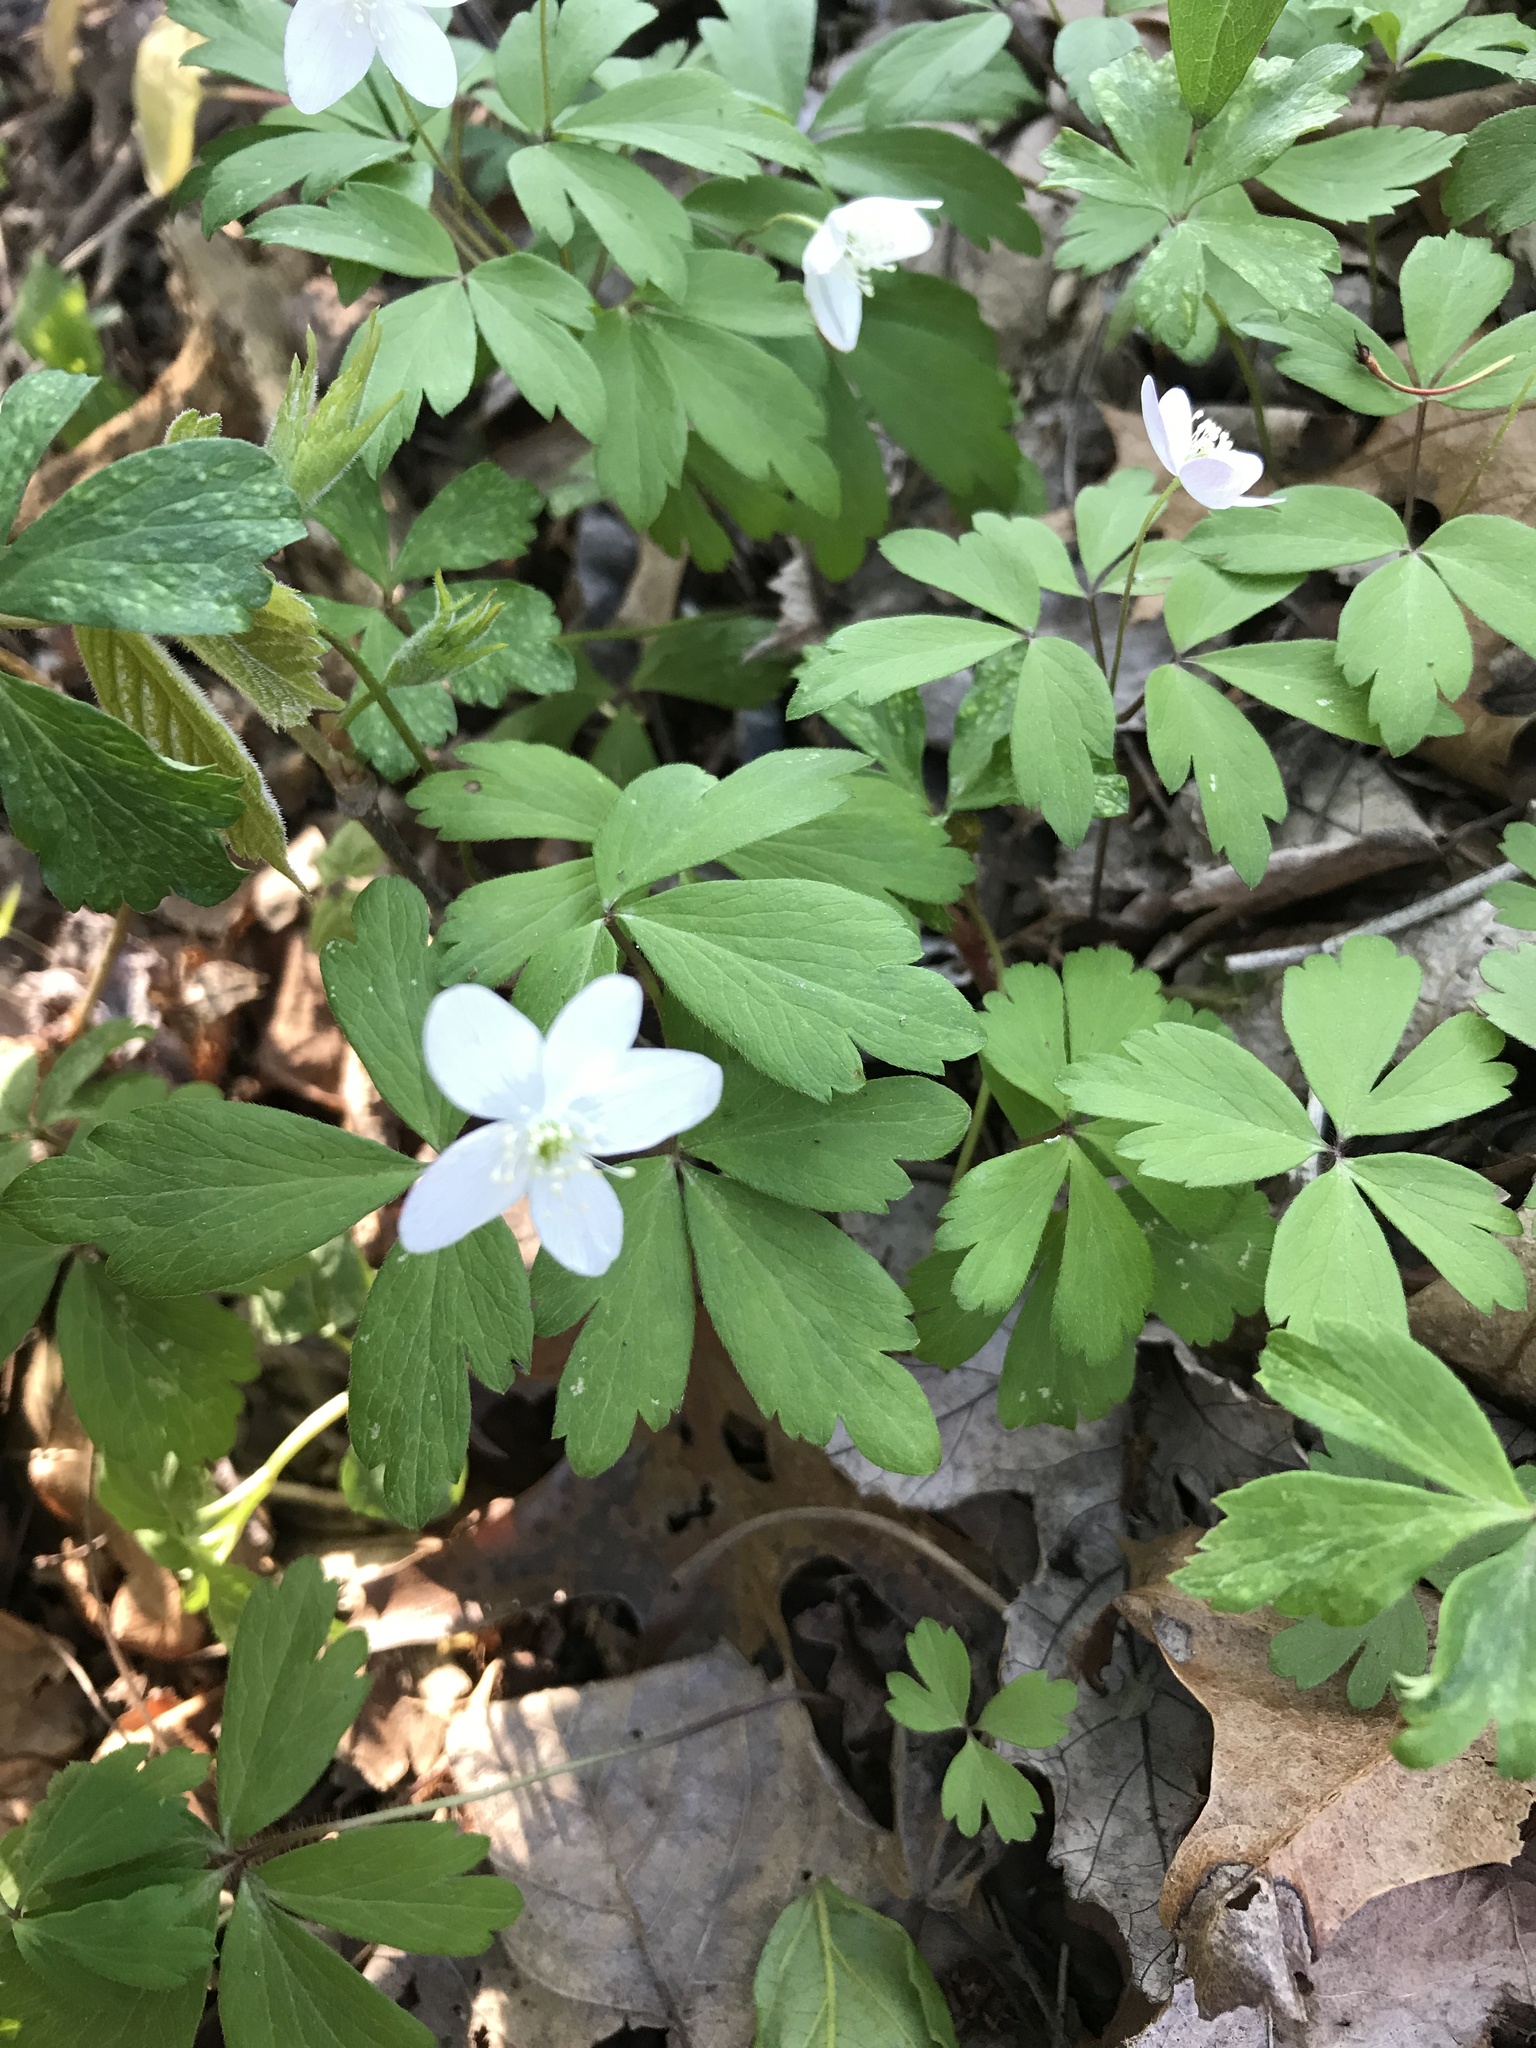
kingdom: Plantae
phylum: Tracheophyta
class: Magnoliopsida
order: Ranunculales
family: Ranunculaceae
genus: Anemone
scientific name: Anemone quinquefolia
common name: Wood anemone
